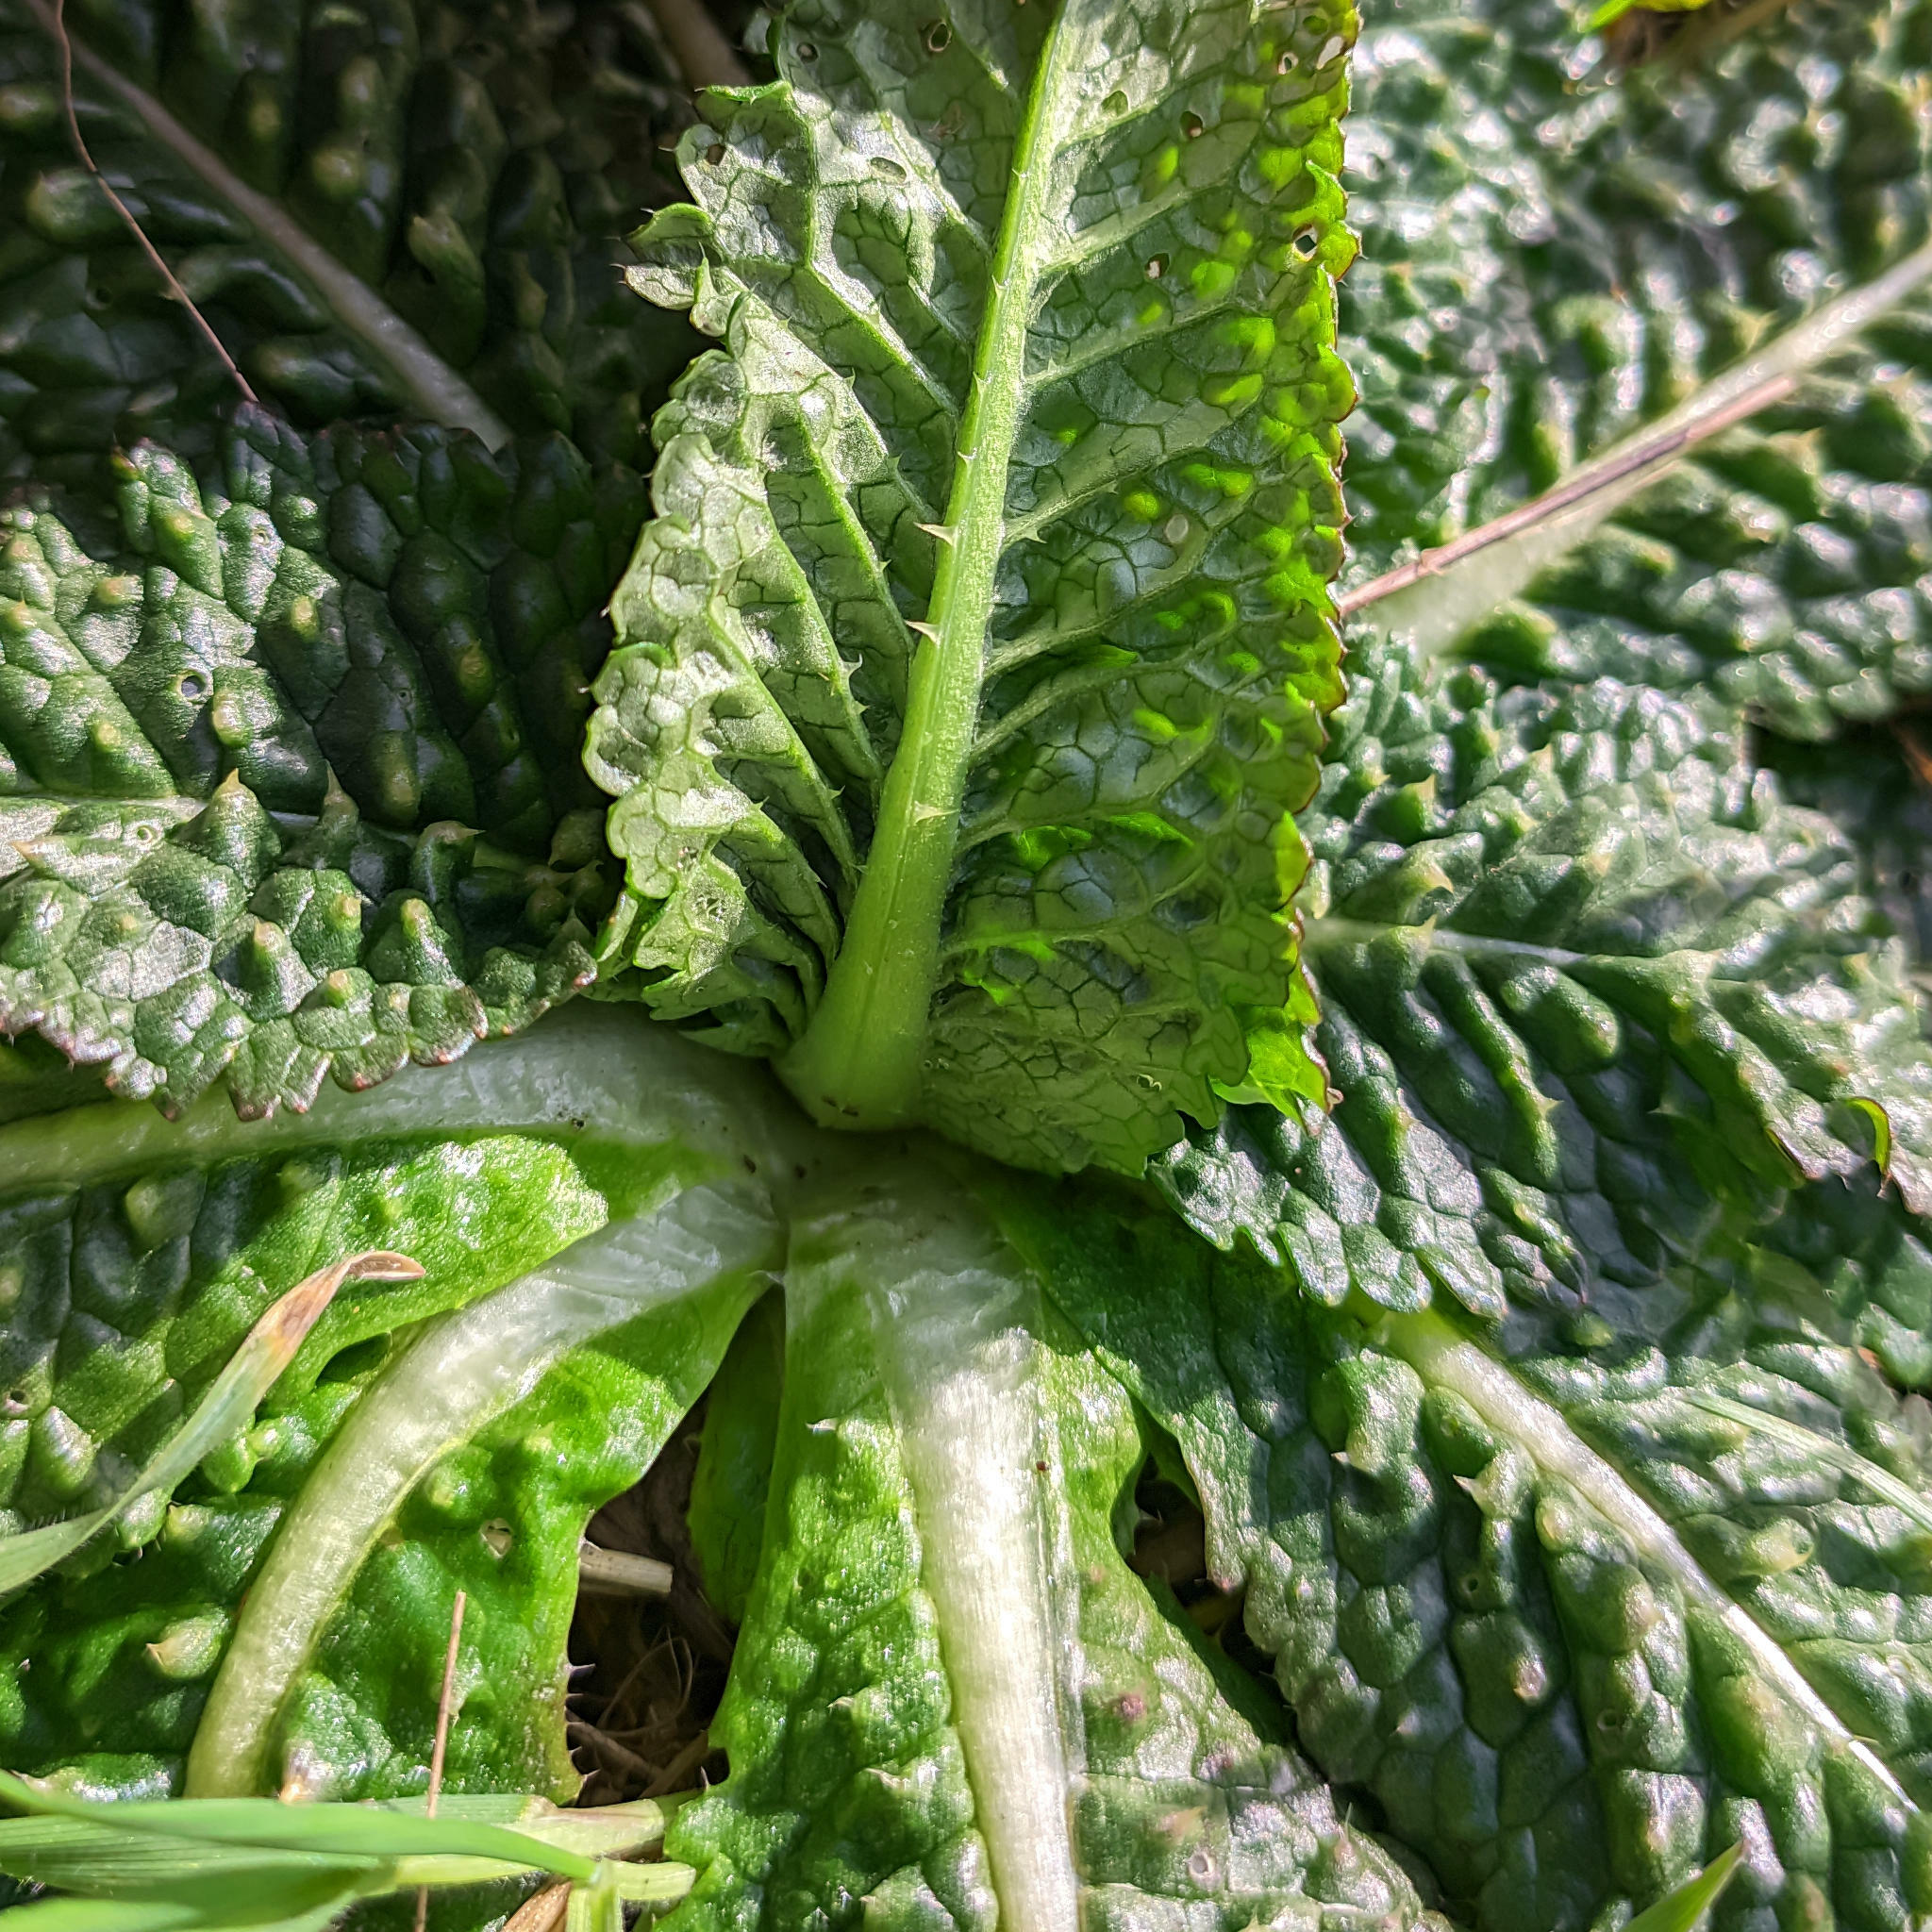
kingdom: Plantae
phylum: Tracheophyta
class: Magnoliopsida
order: Dipsacales
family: Caprifoliaceae
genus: Dipsacus
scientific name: Dipsacus fullonum
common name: Teasel
